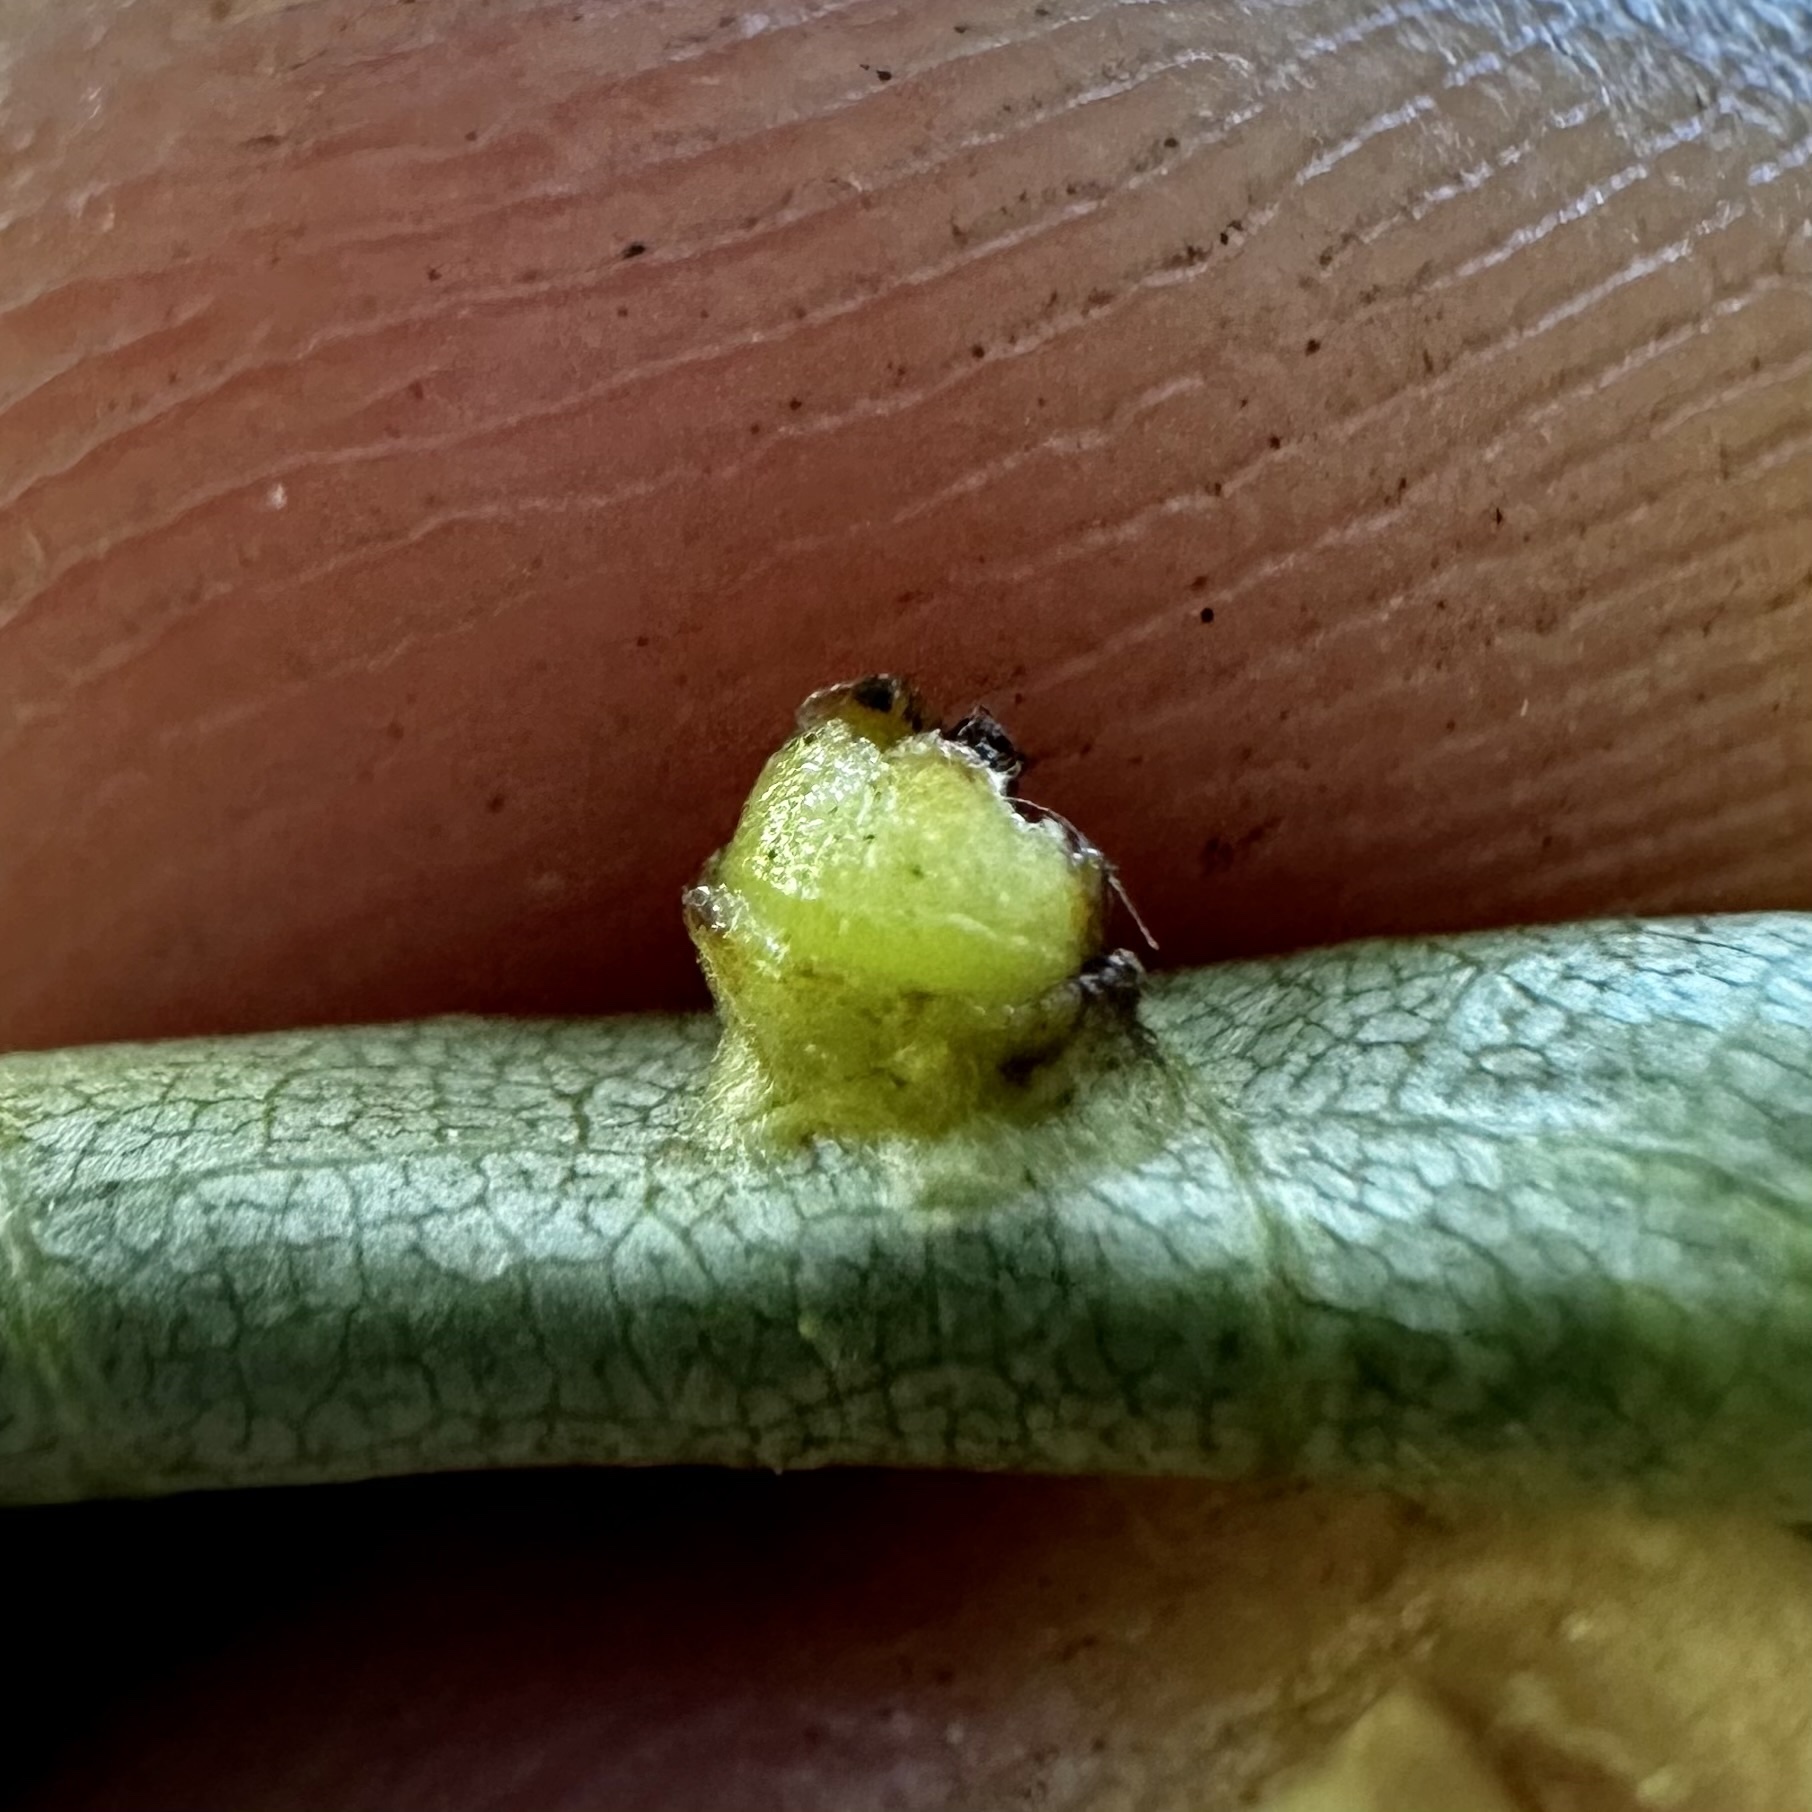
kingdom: Animalia
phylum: Arthropoda
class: Insecta
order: Diptera
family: Cecidomyiidae
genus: Caryomyia
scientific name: Caryomyia melicrustum
